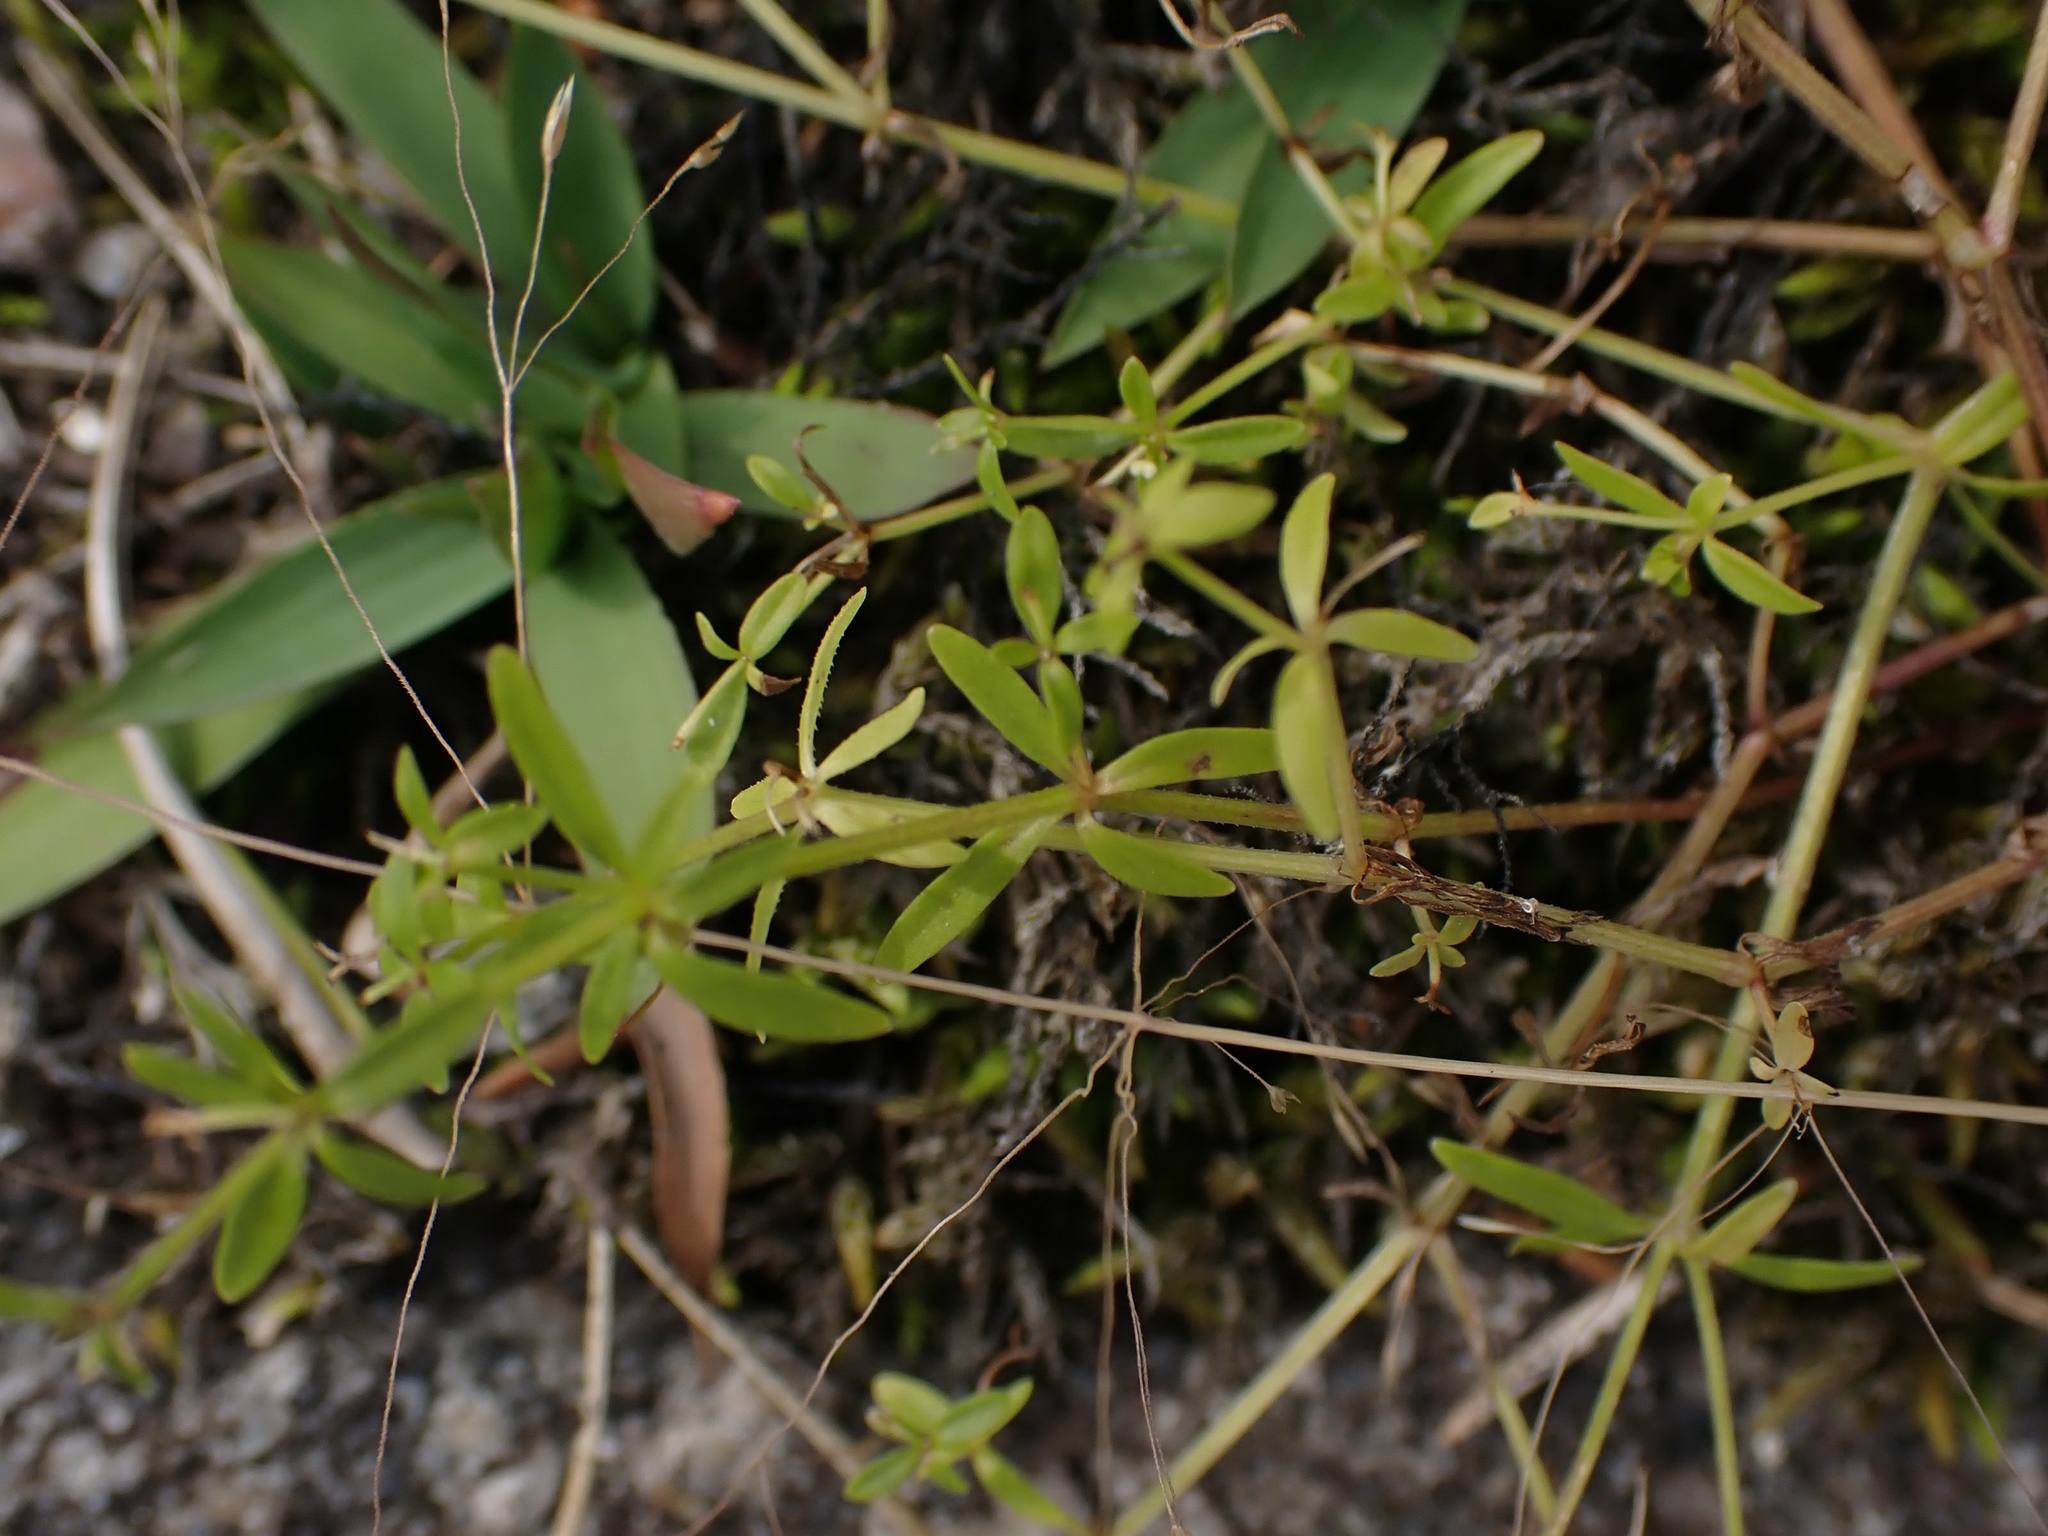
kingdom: Plantae
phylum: Tracheophyta
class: Magnoliopsida
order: Gentianales
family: Rubiaceae
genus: Galium
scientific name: Galium trifidum
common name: Small bedstraw
